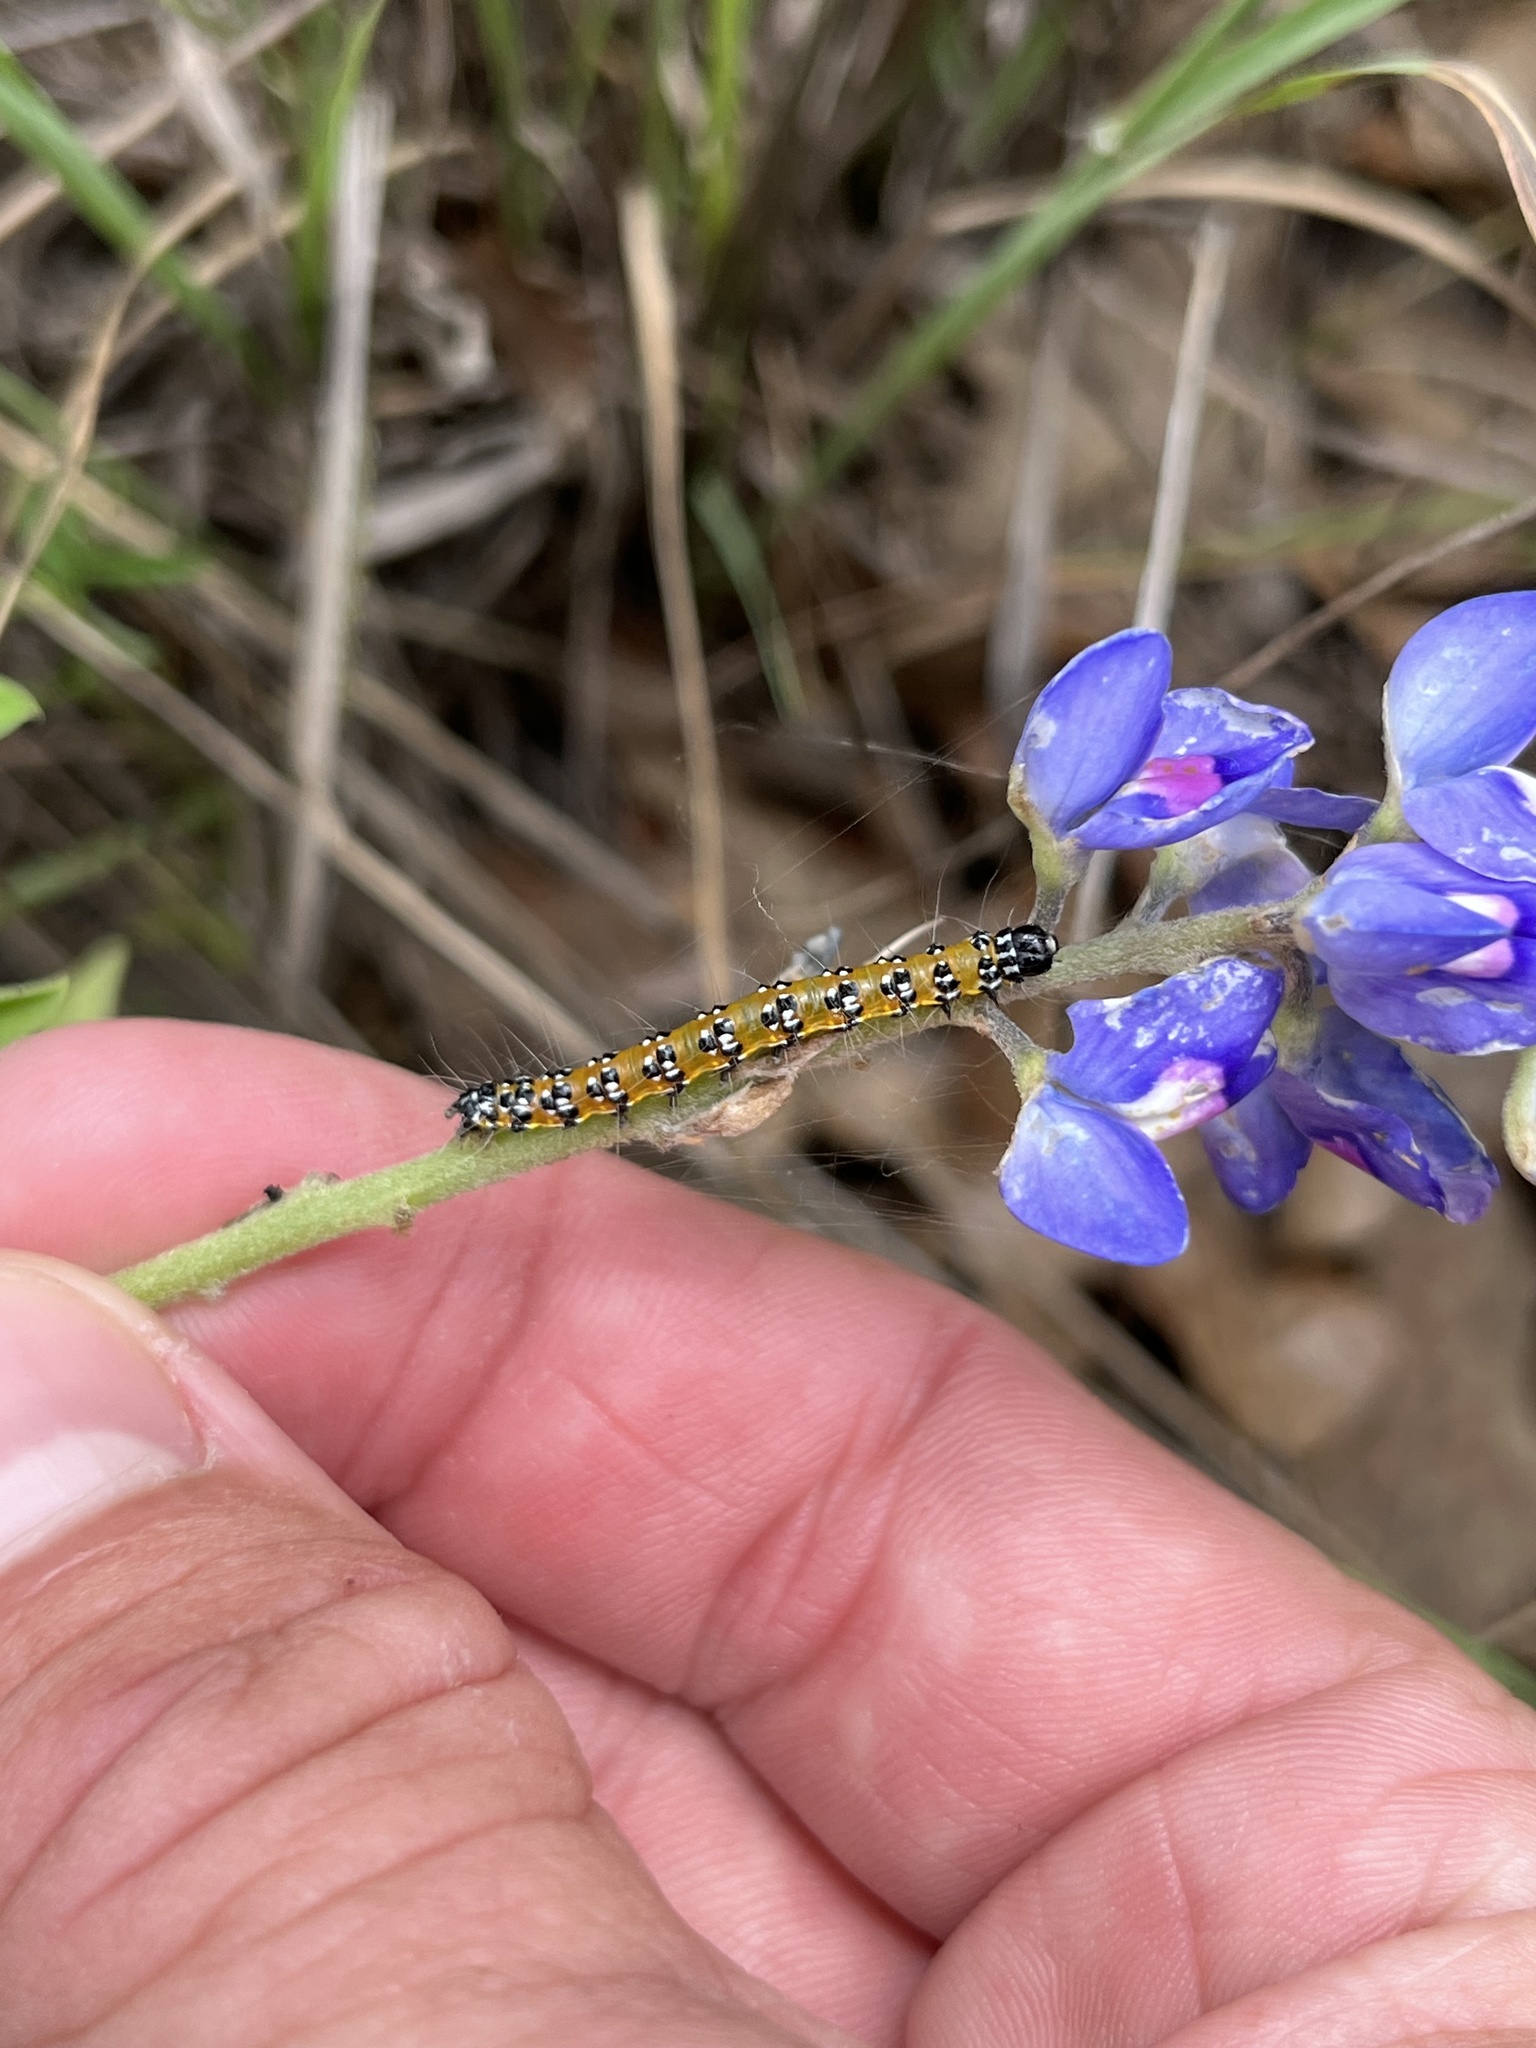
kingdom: Animalia
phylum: Arthropoda
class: Insecta
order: Lepidoptera
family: Crambidae
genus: Uresiphita
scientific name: Uresiphita reversalis
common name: Genista broom moth
